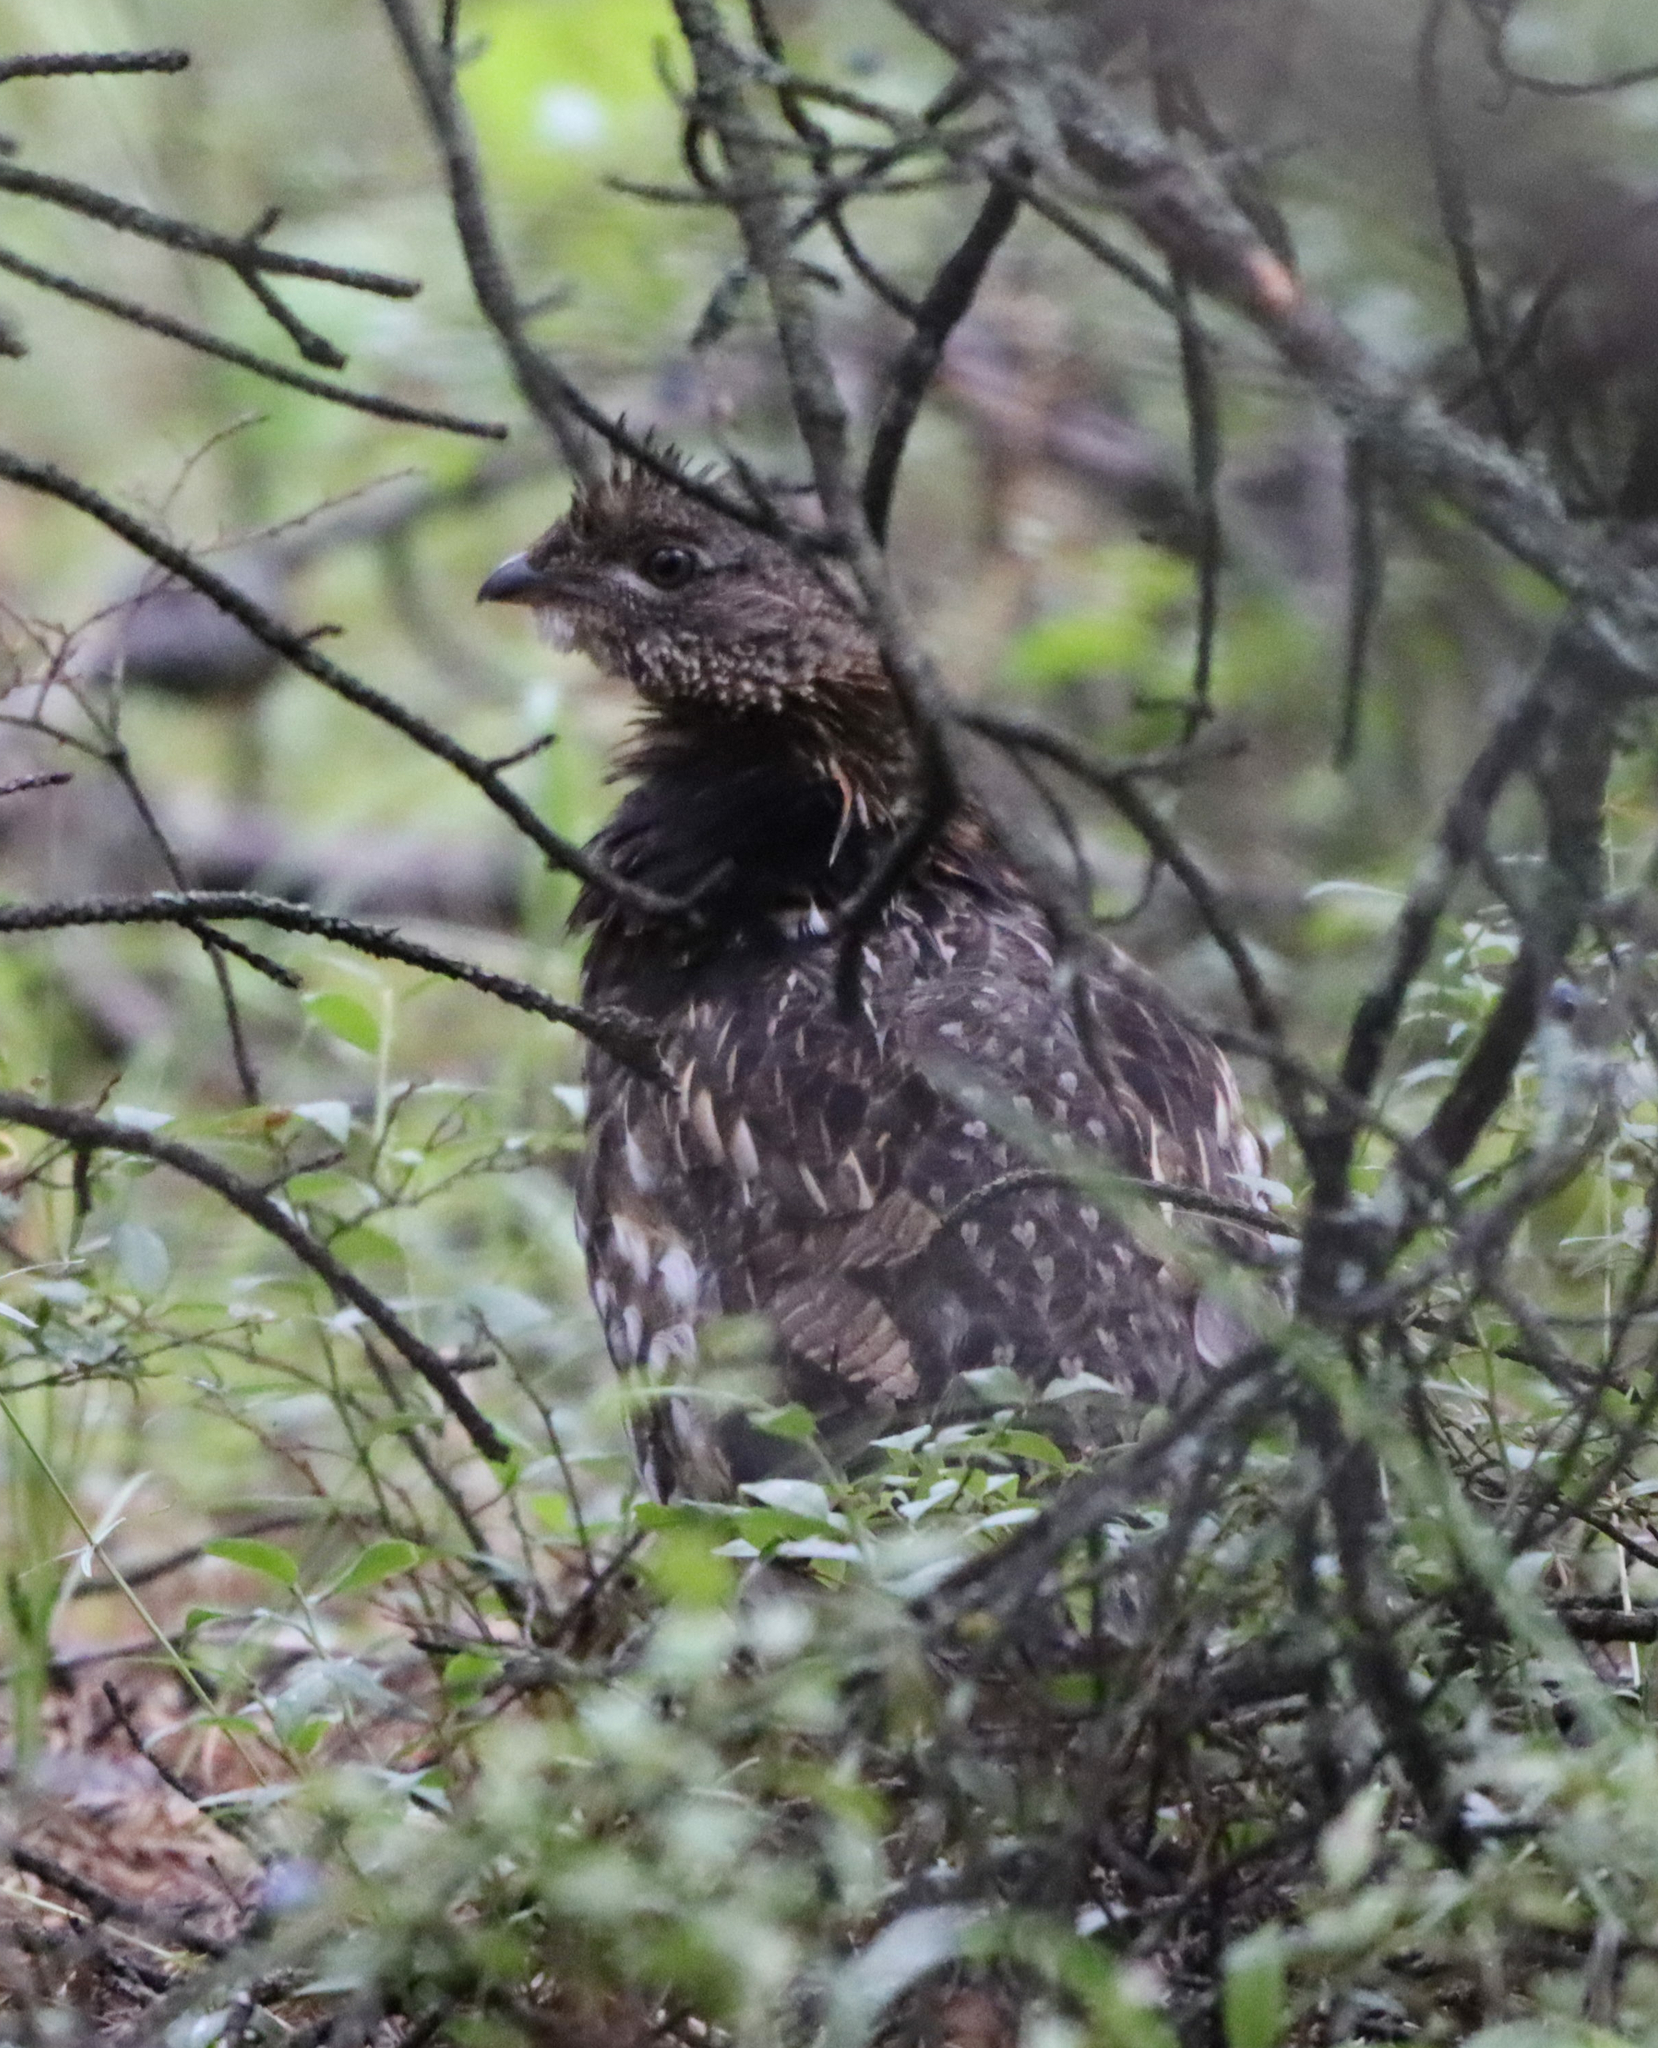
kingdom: Animalia
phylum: Chordata
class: Aves
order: Galliformes
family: Phasianidae
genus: Bonasa
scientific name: Bonasa umbellus
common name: Ruffed grouse
